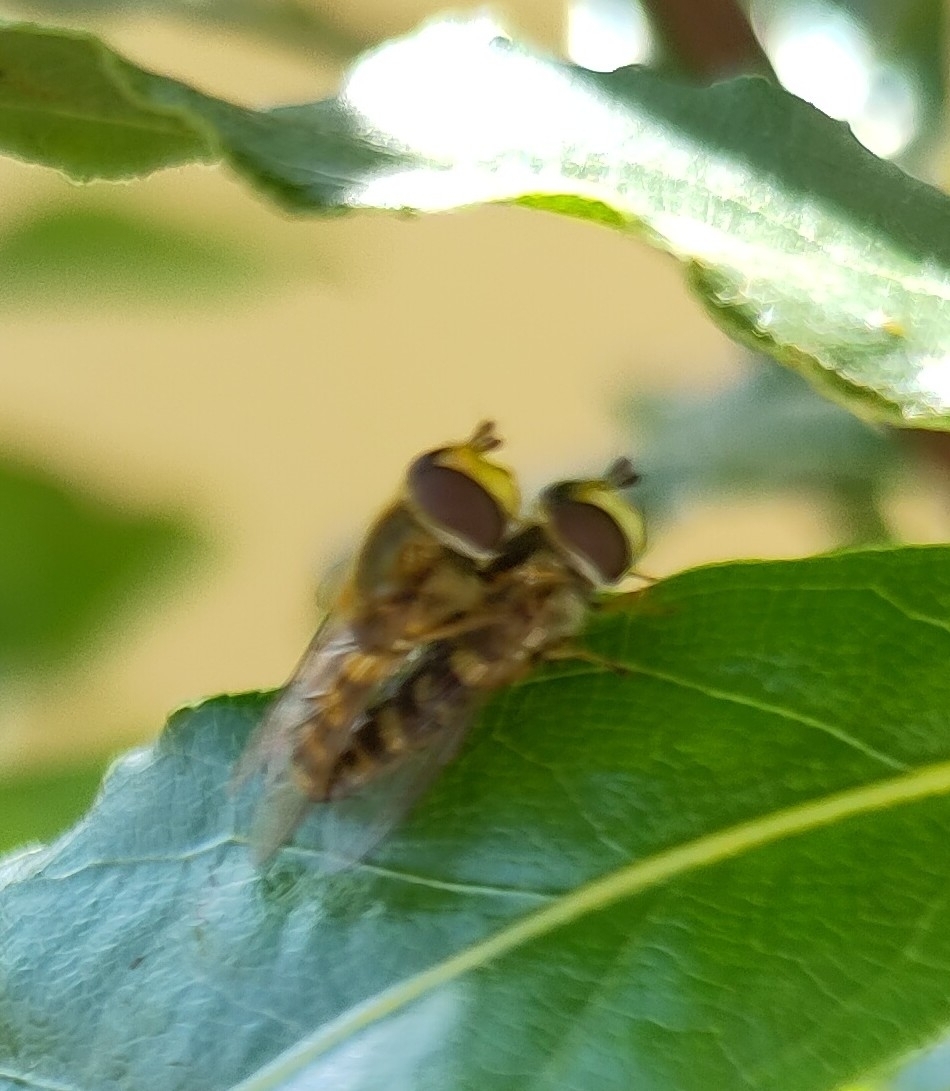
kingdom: Animalia
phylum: Arthropoda
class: Insecta
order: Diptera
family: Syrphidae
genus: Eupeodes
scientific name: Eupeodes corollae
